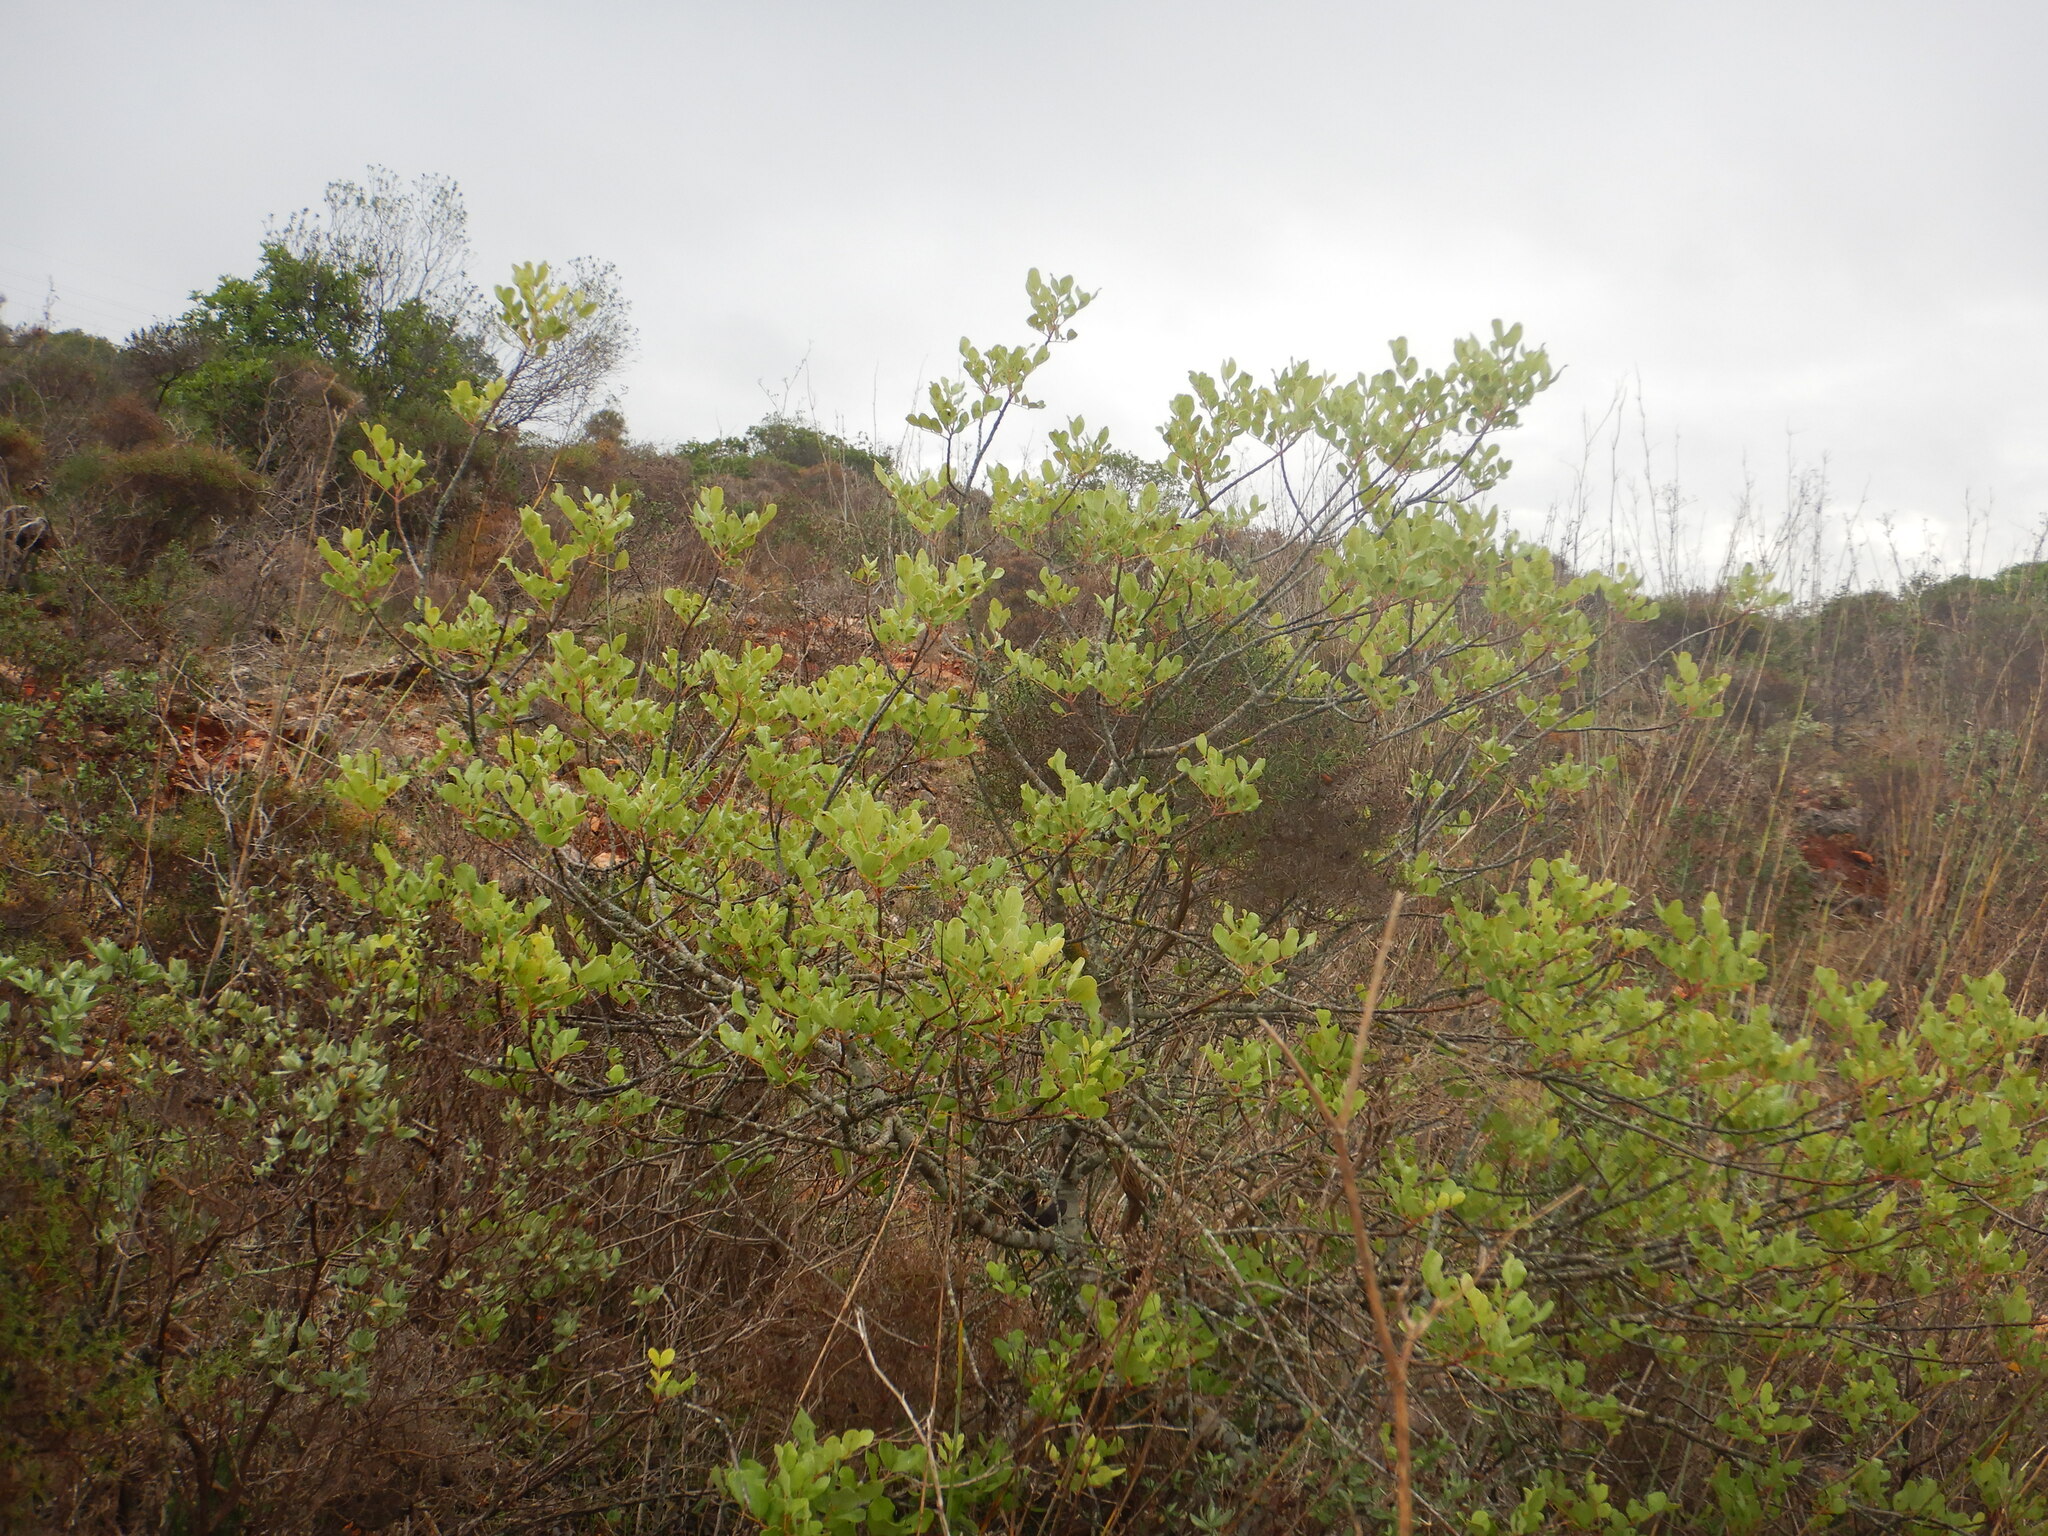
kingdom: Plantae
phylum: Tracheophyta
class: Magnoliopsida
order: Fabales
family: Fabaceae
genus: Ceratonia
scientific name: Ceratonia siliqua
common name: Carob
